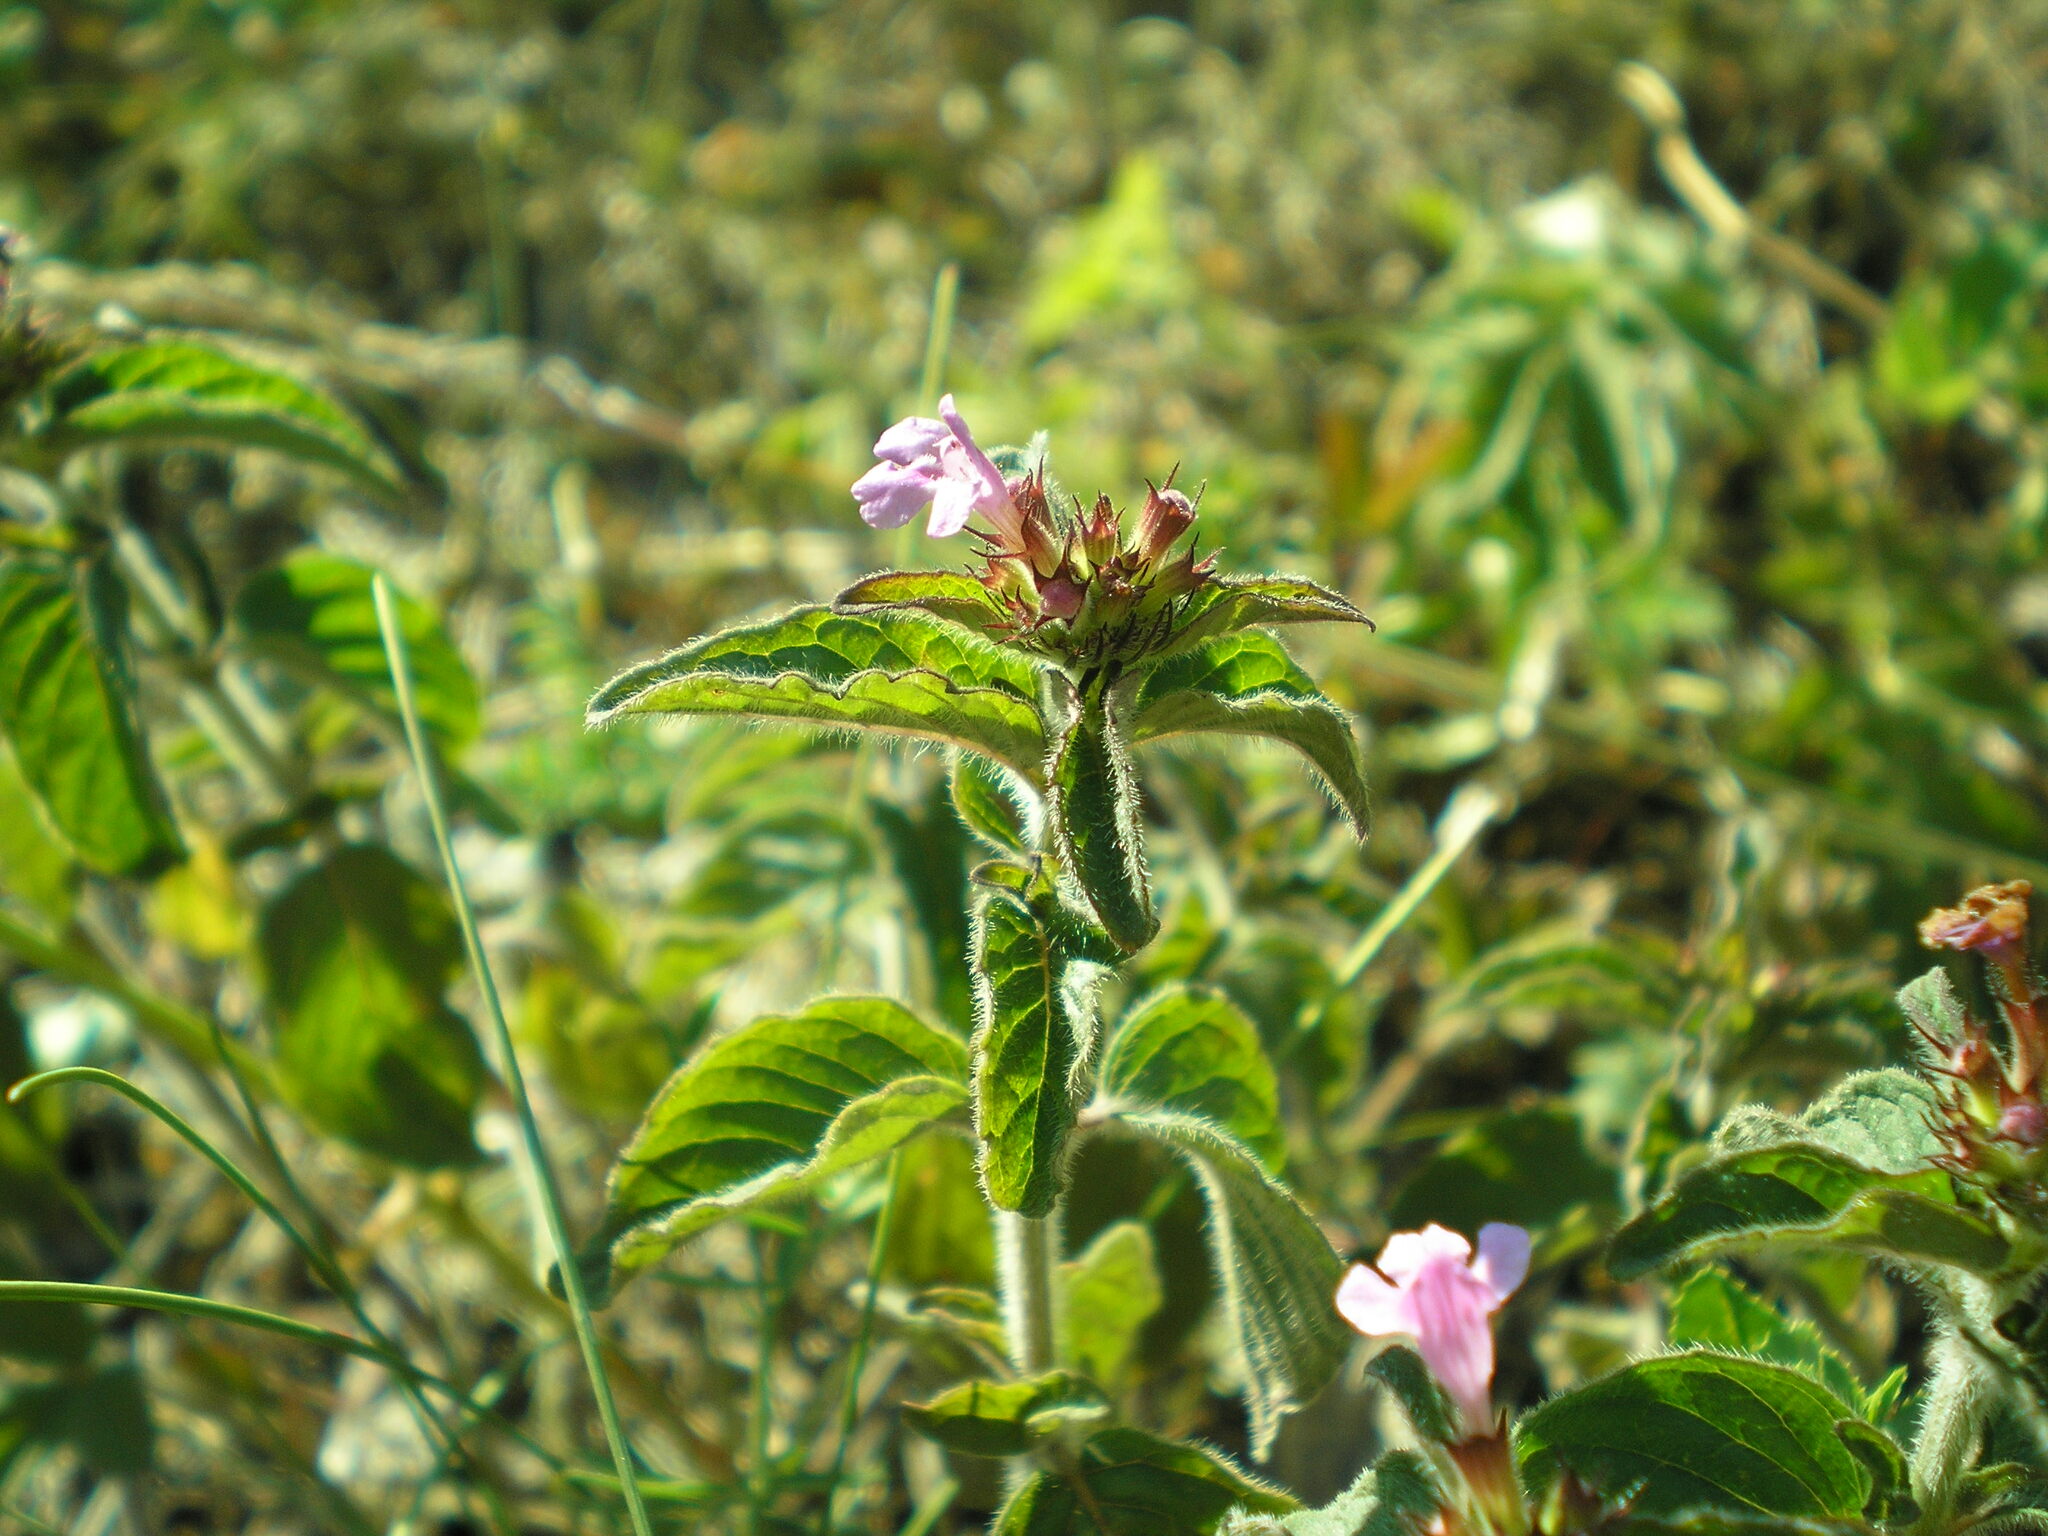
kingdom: Plantae
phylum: Tracheophyta
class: Magnoliopsida
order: Lamiales
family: Lamiaceae
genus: Clinopodium
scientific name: Clinopodium vulgare
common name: Wild basil
